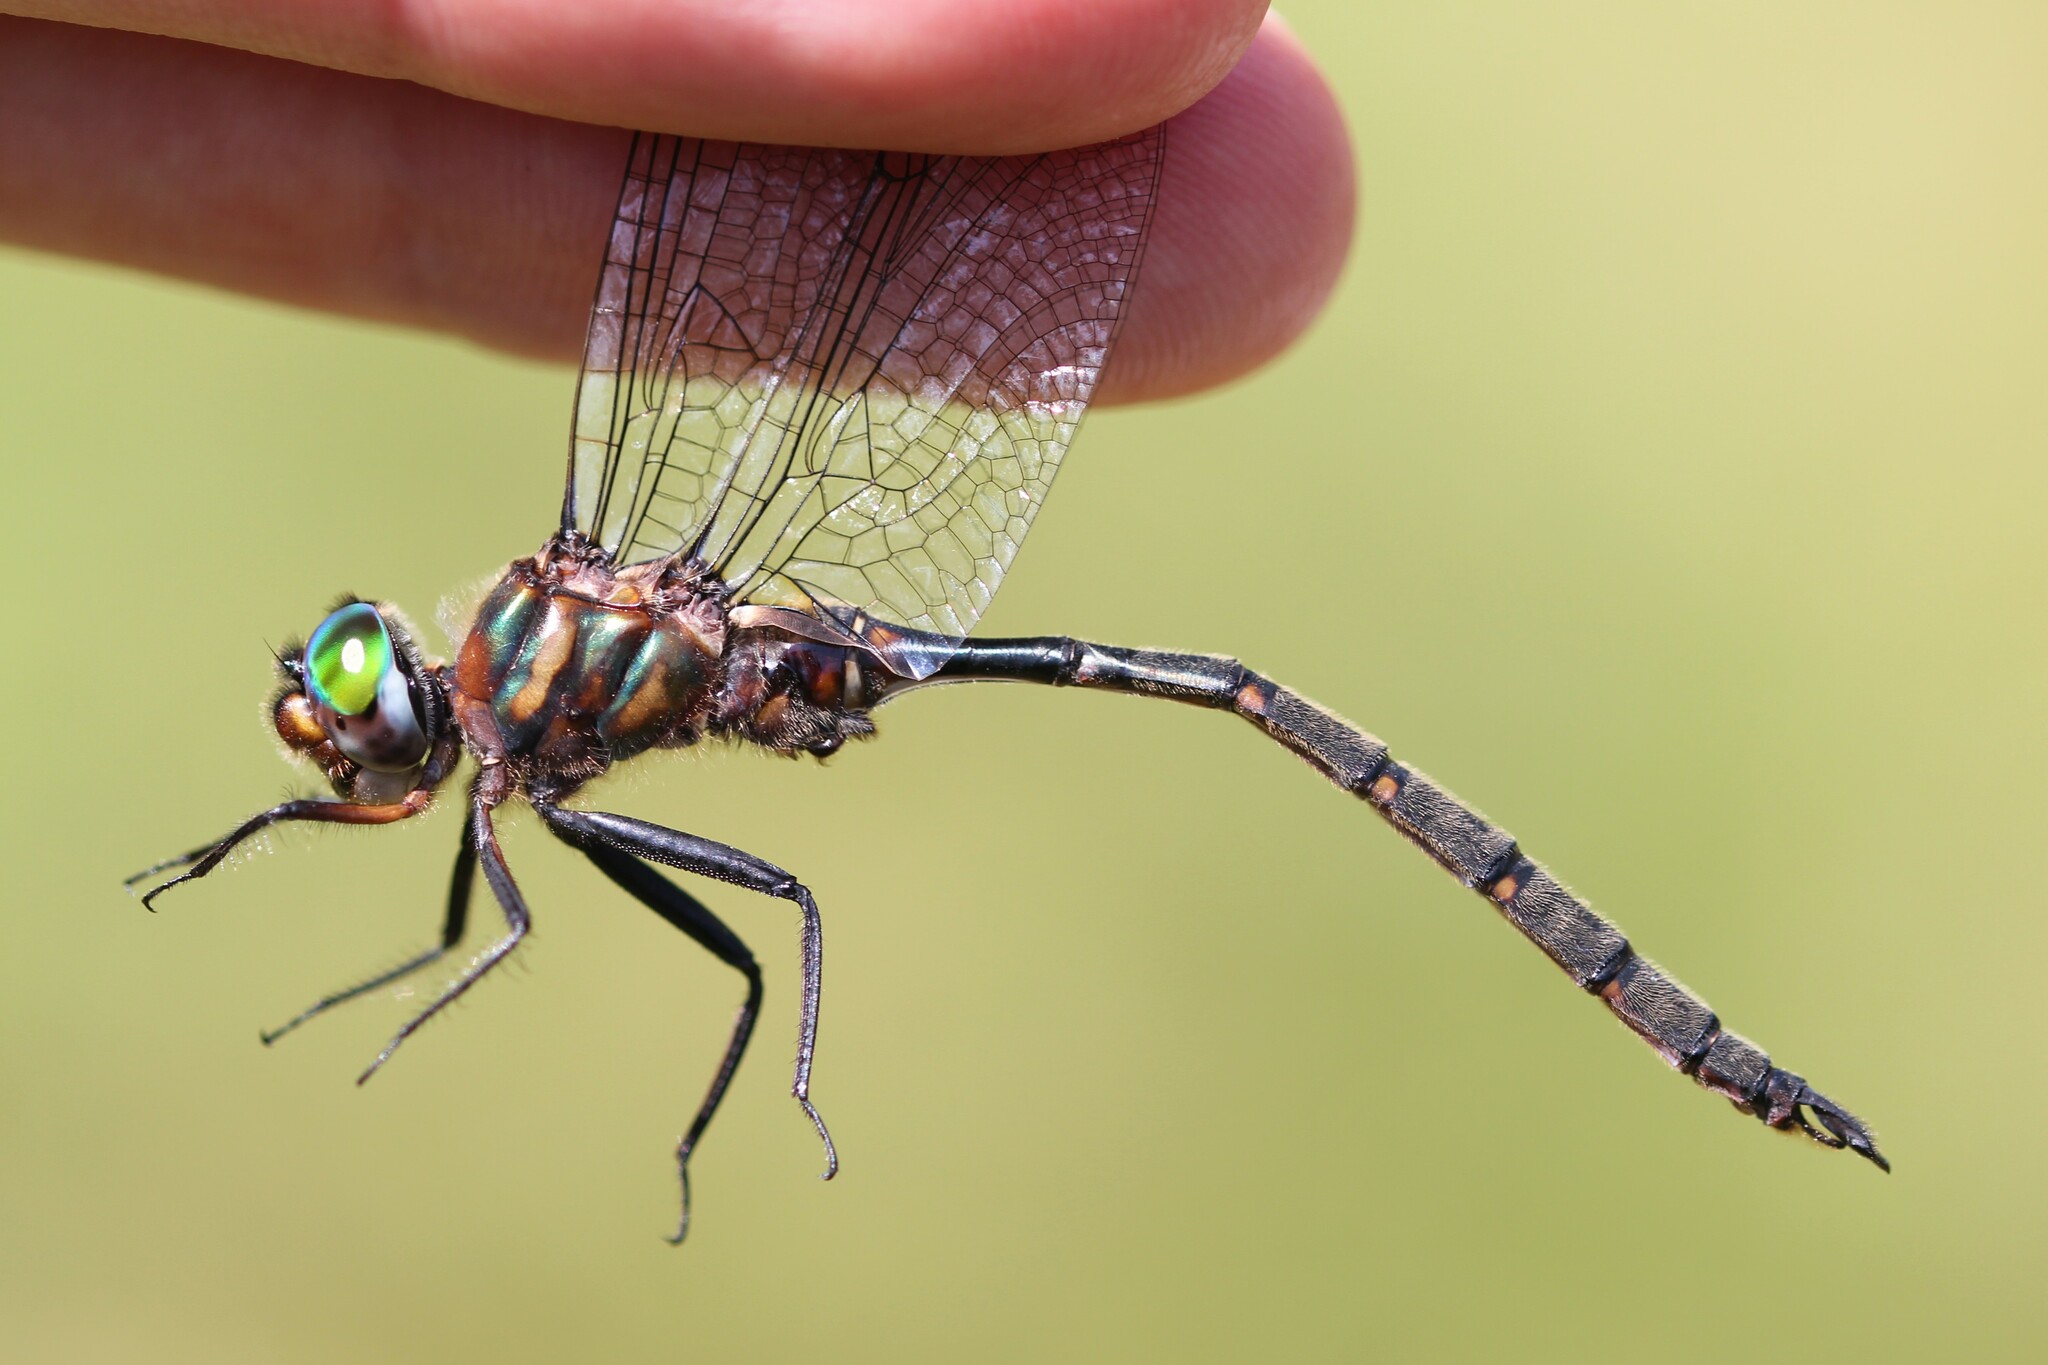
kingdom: Animalia
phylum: Arthropoda
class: Insecta
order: Odonata
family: Corduliidae
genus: Somatochlora
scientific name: Somatochlora incurvata
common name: Incurvate emerald
